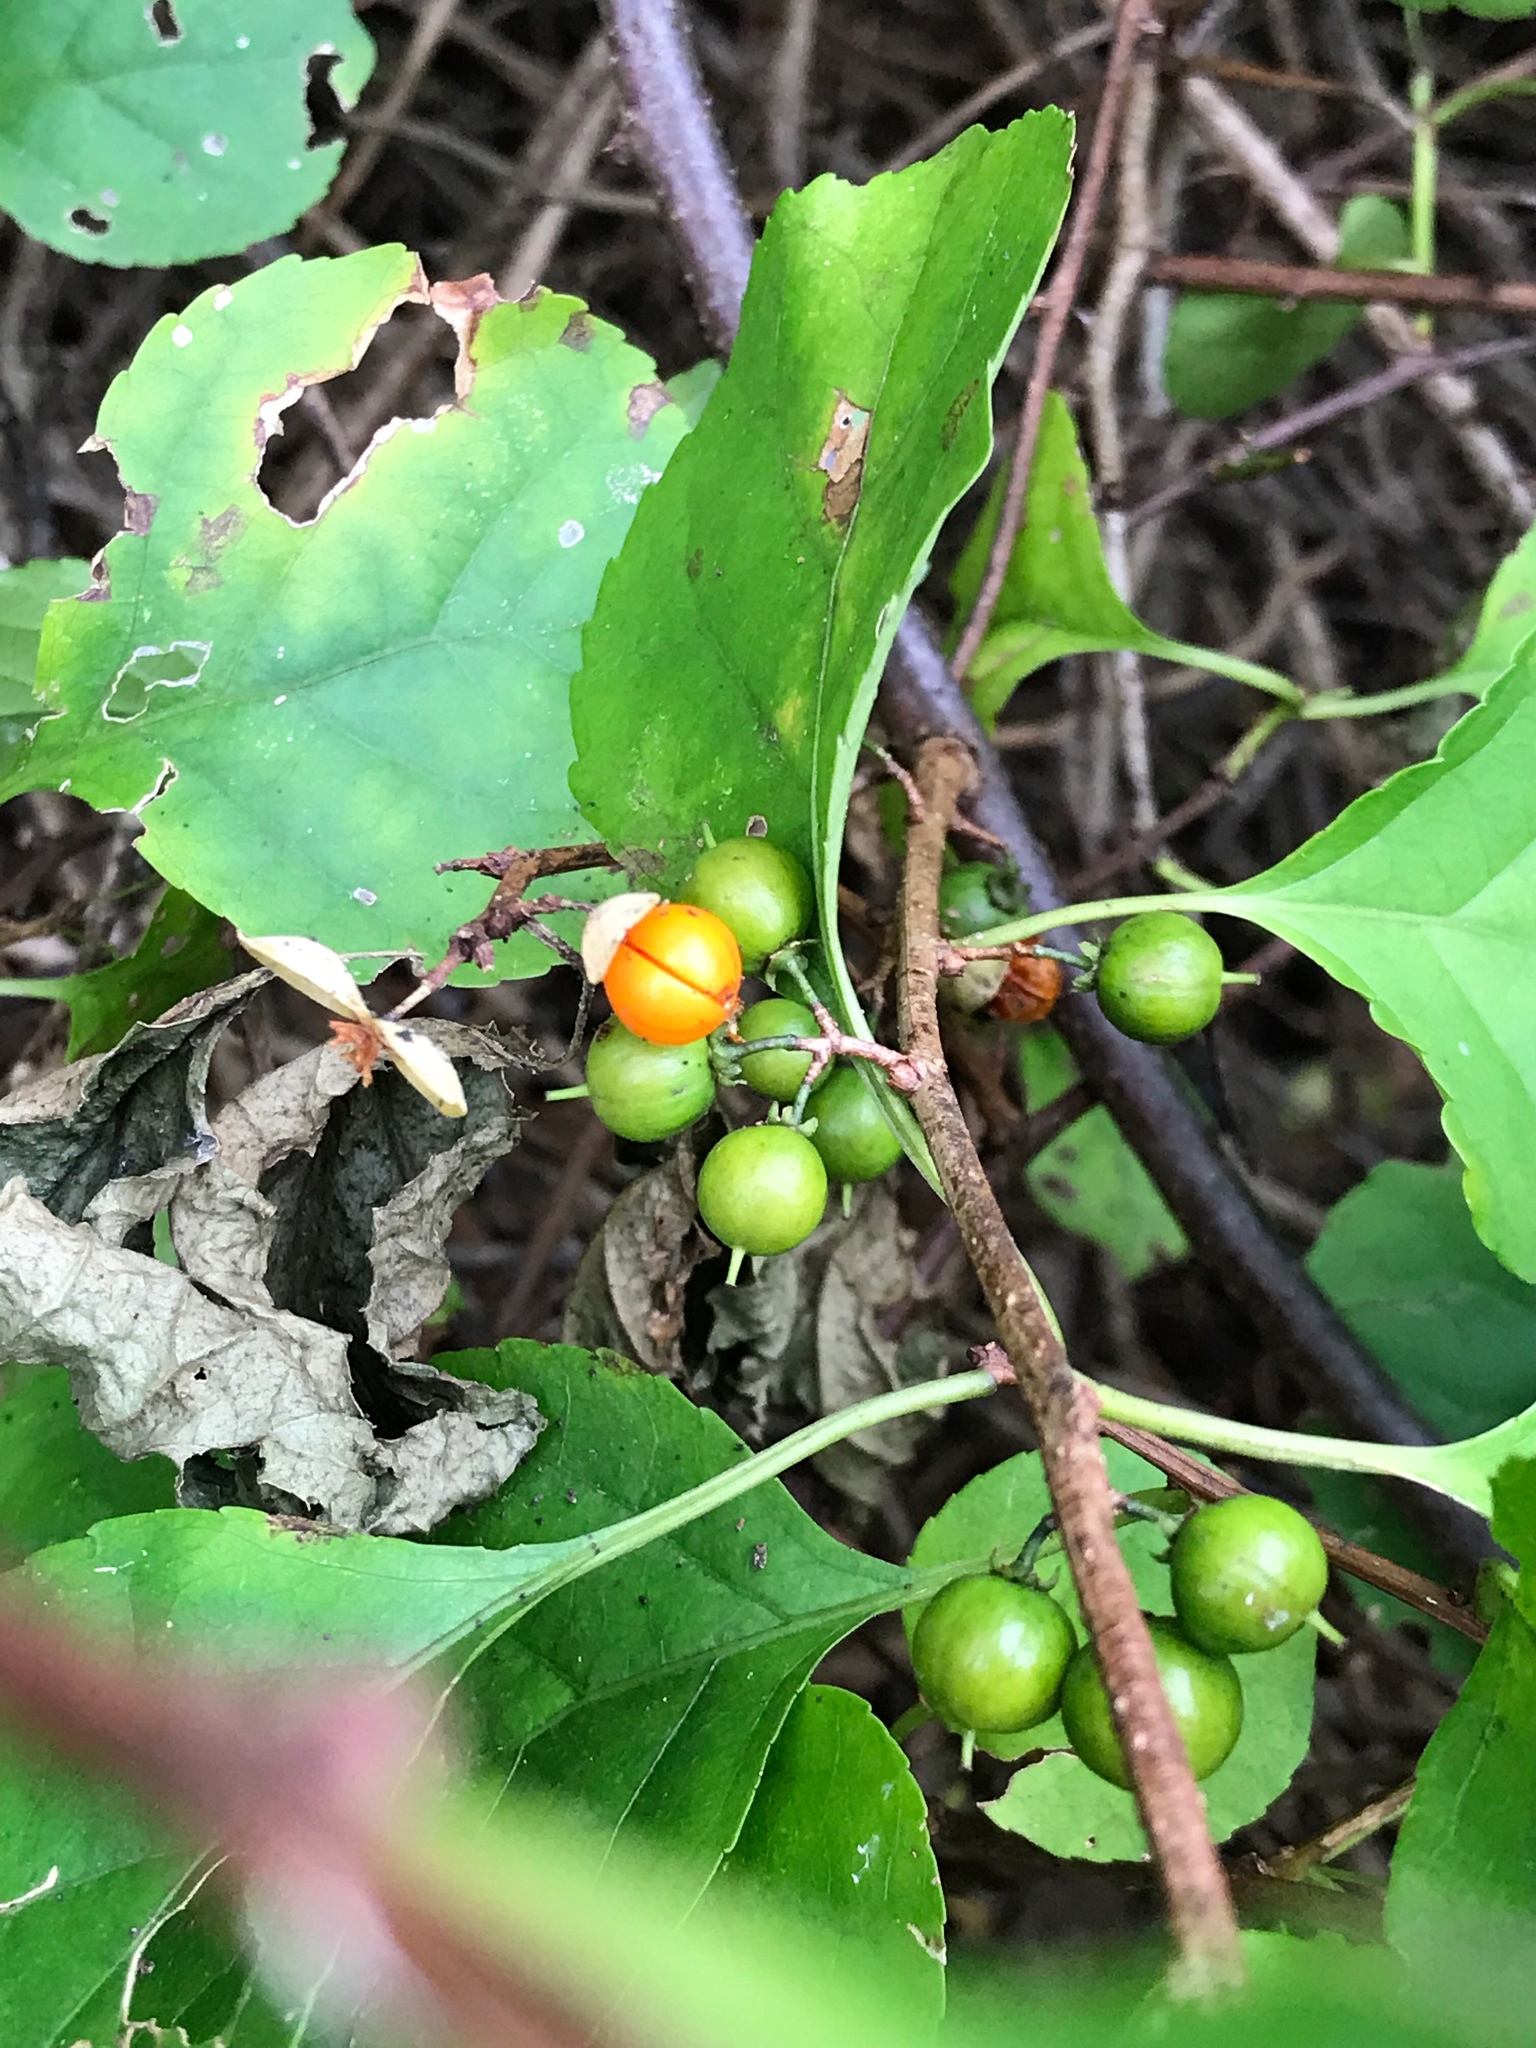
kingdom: Plantae
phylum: Tracheophyta
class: Magnoliopsida
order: Celastrales
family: Celastraceae
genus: Celastrus
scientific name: Celastrus orbiculatus
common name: Oriental bittersweet
